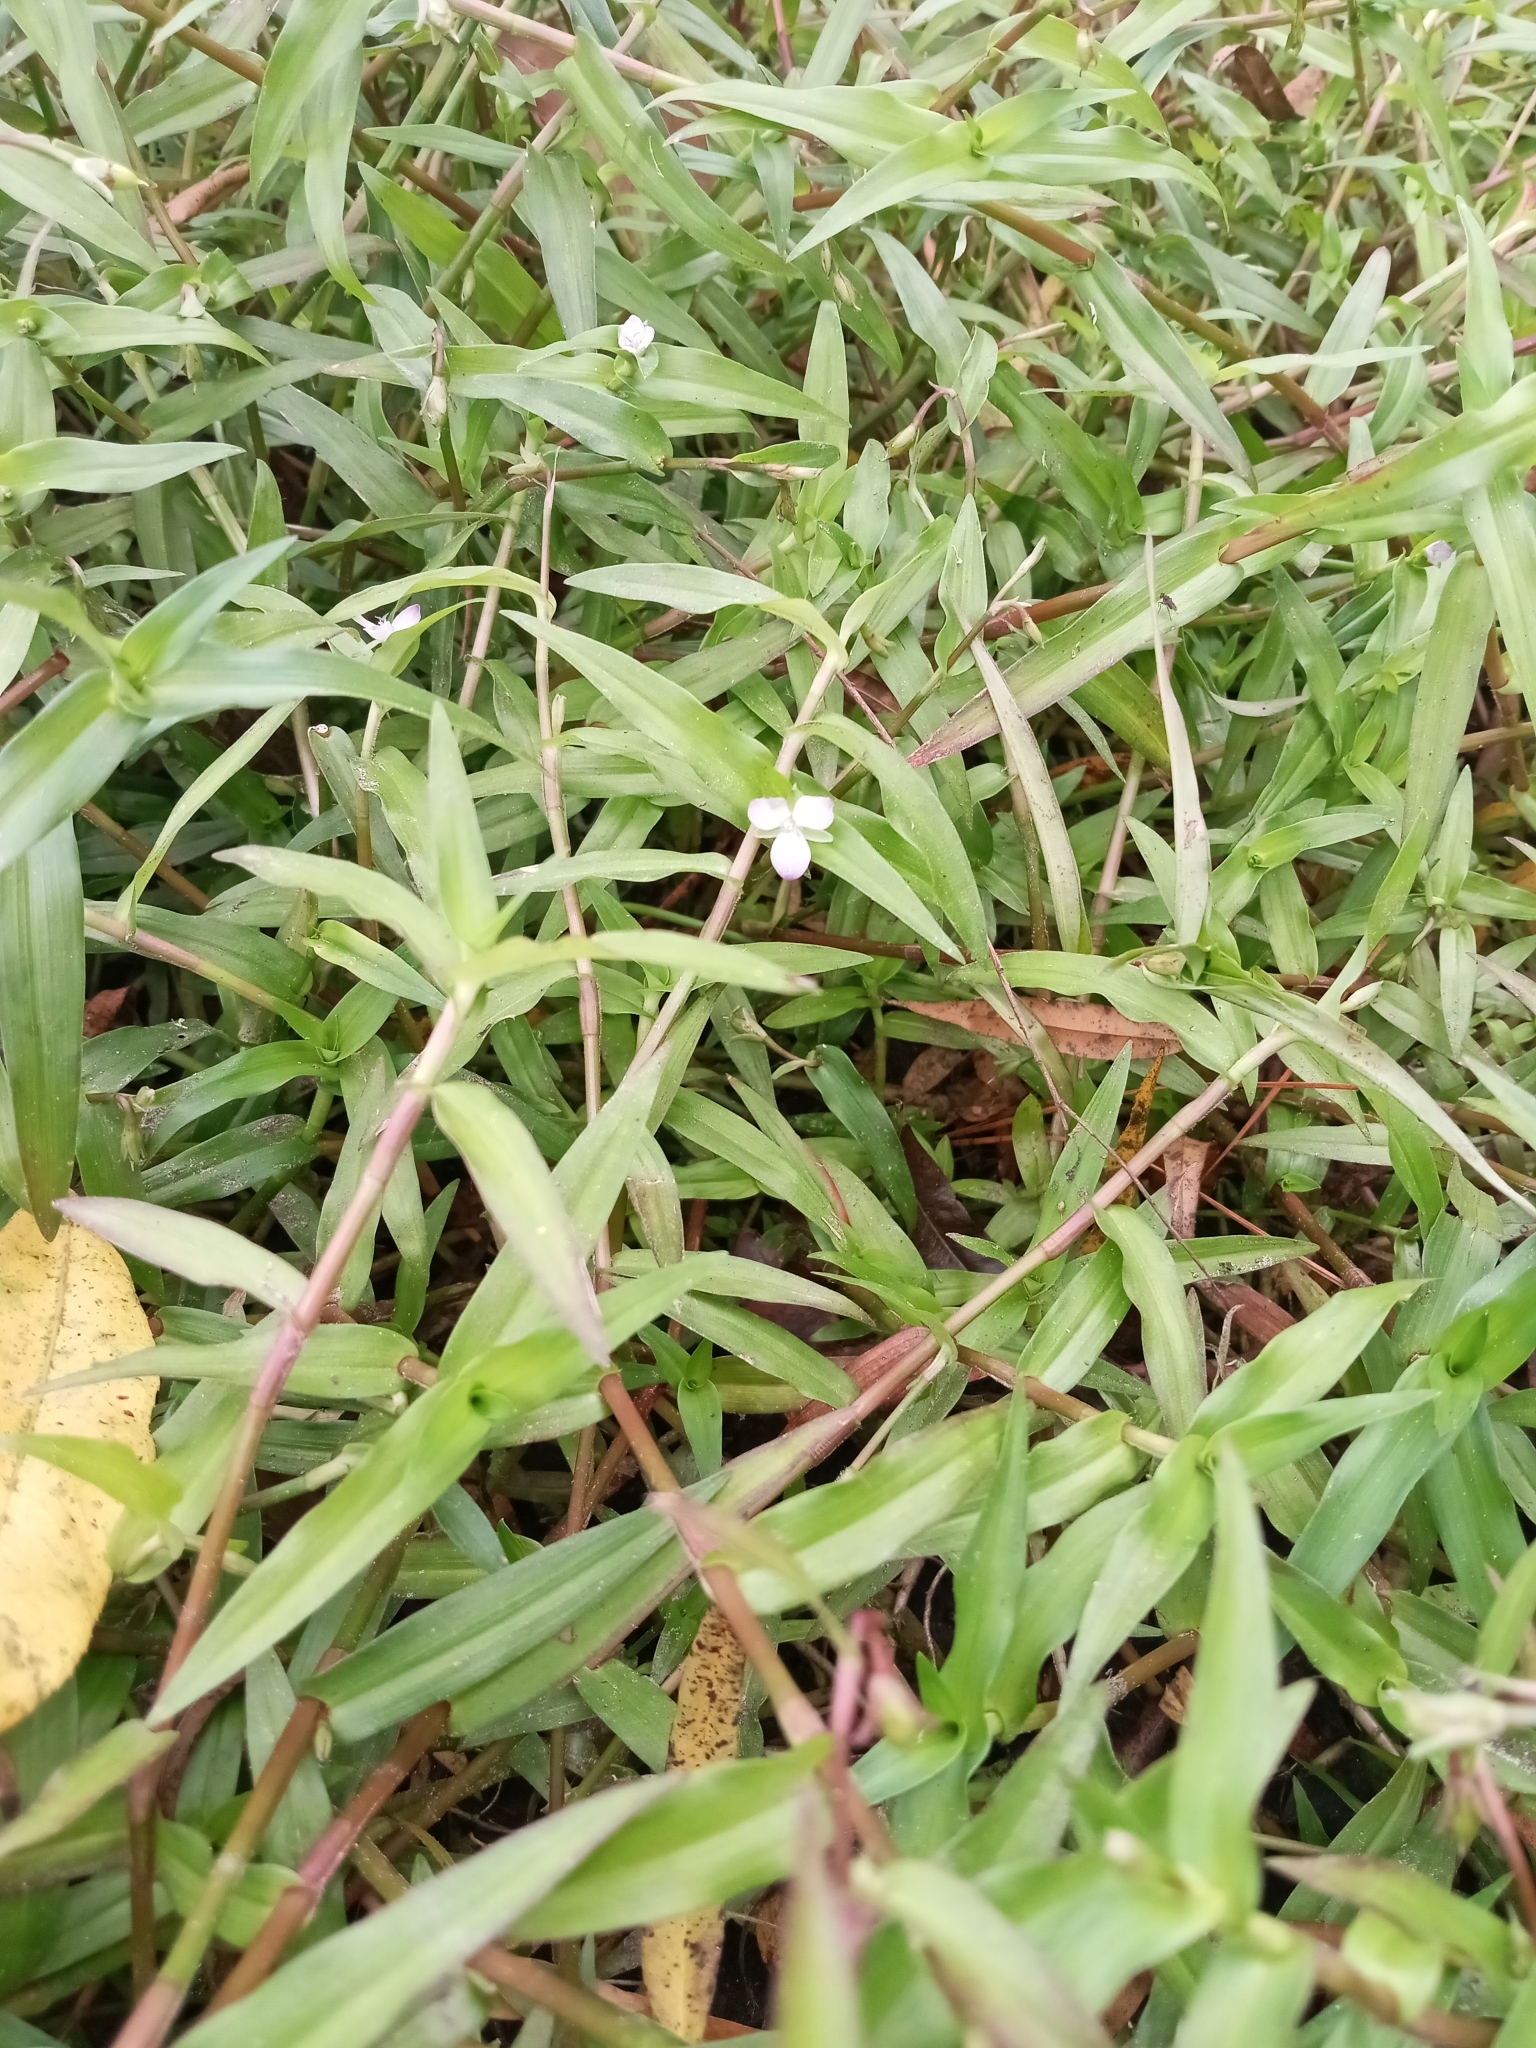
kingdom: Plantae
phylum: Tracheophyta
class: Liliopsida
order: Commelinales
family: Commelinaceae
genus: Murdannia
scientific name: Murdannia keisak
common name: Wartremoving herb
